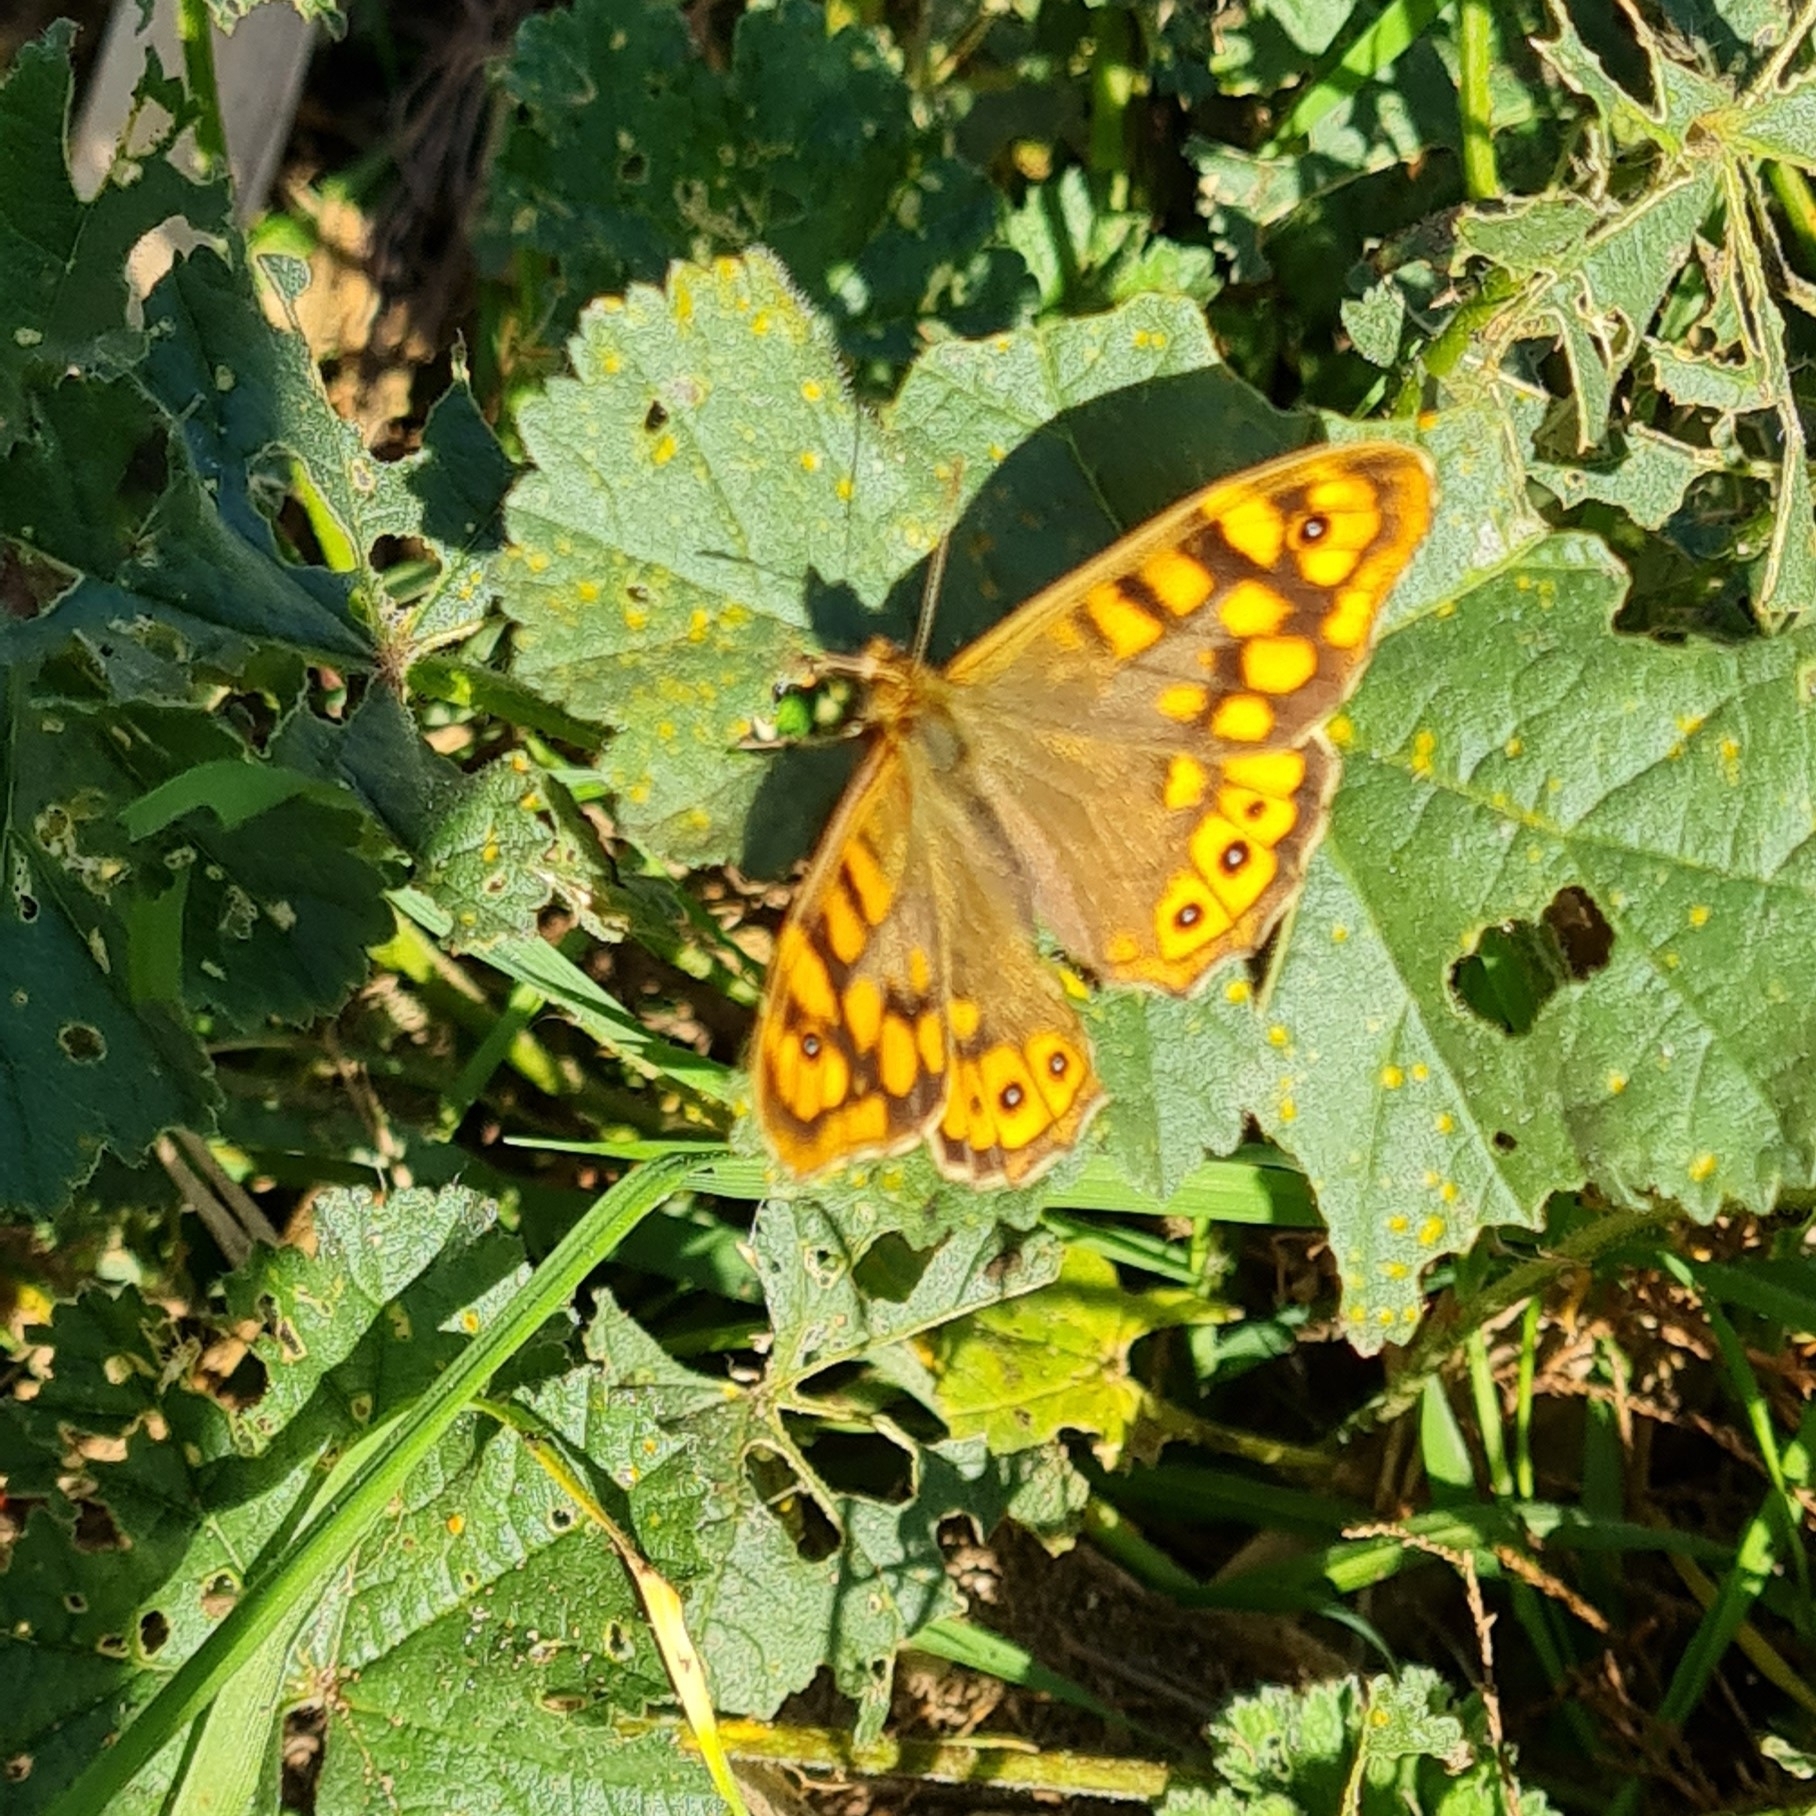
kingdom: Animalia
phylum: Arthropoda
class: Insecta
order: Lepidoptera
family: Nymphalidae
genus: Pararge
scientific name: Pararge aegeria
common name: Speckled wood
